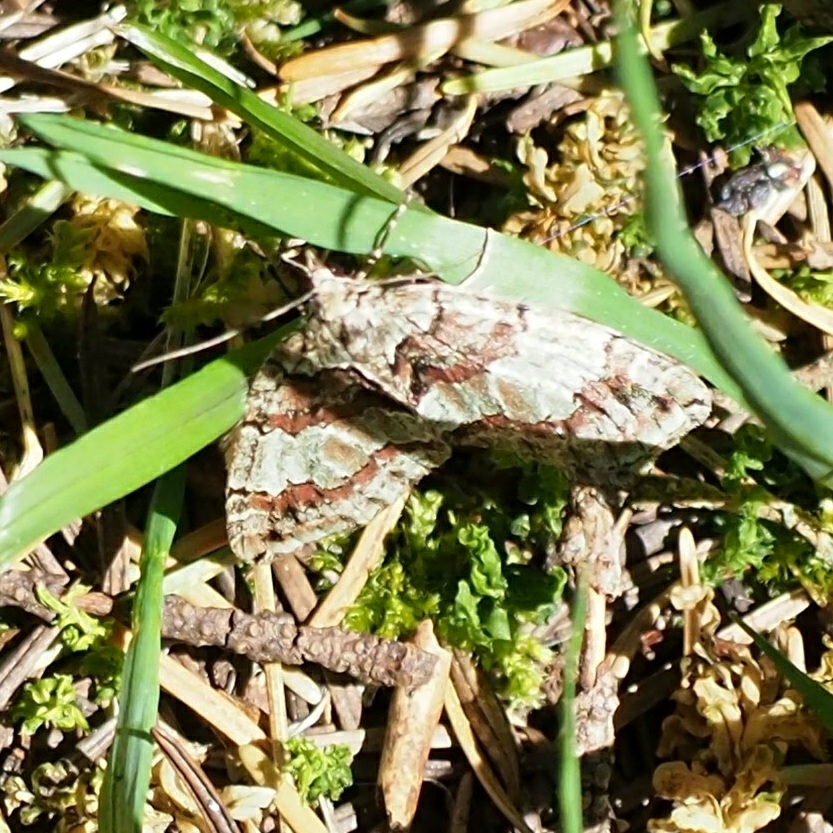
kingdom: Animalia
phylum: Arthropoda
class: Insecta
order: Lepidoptera
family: Geometridae
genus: Hydriomena
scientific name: Hydriomena irata
